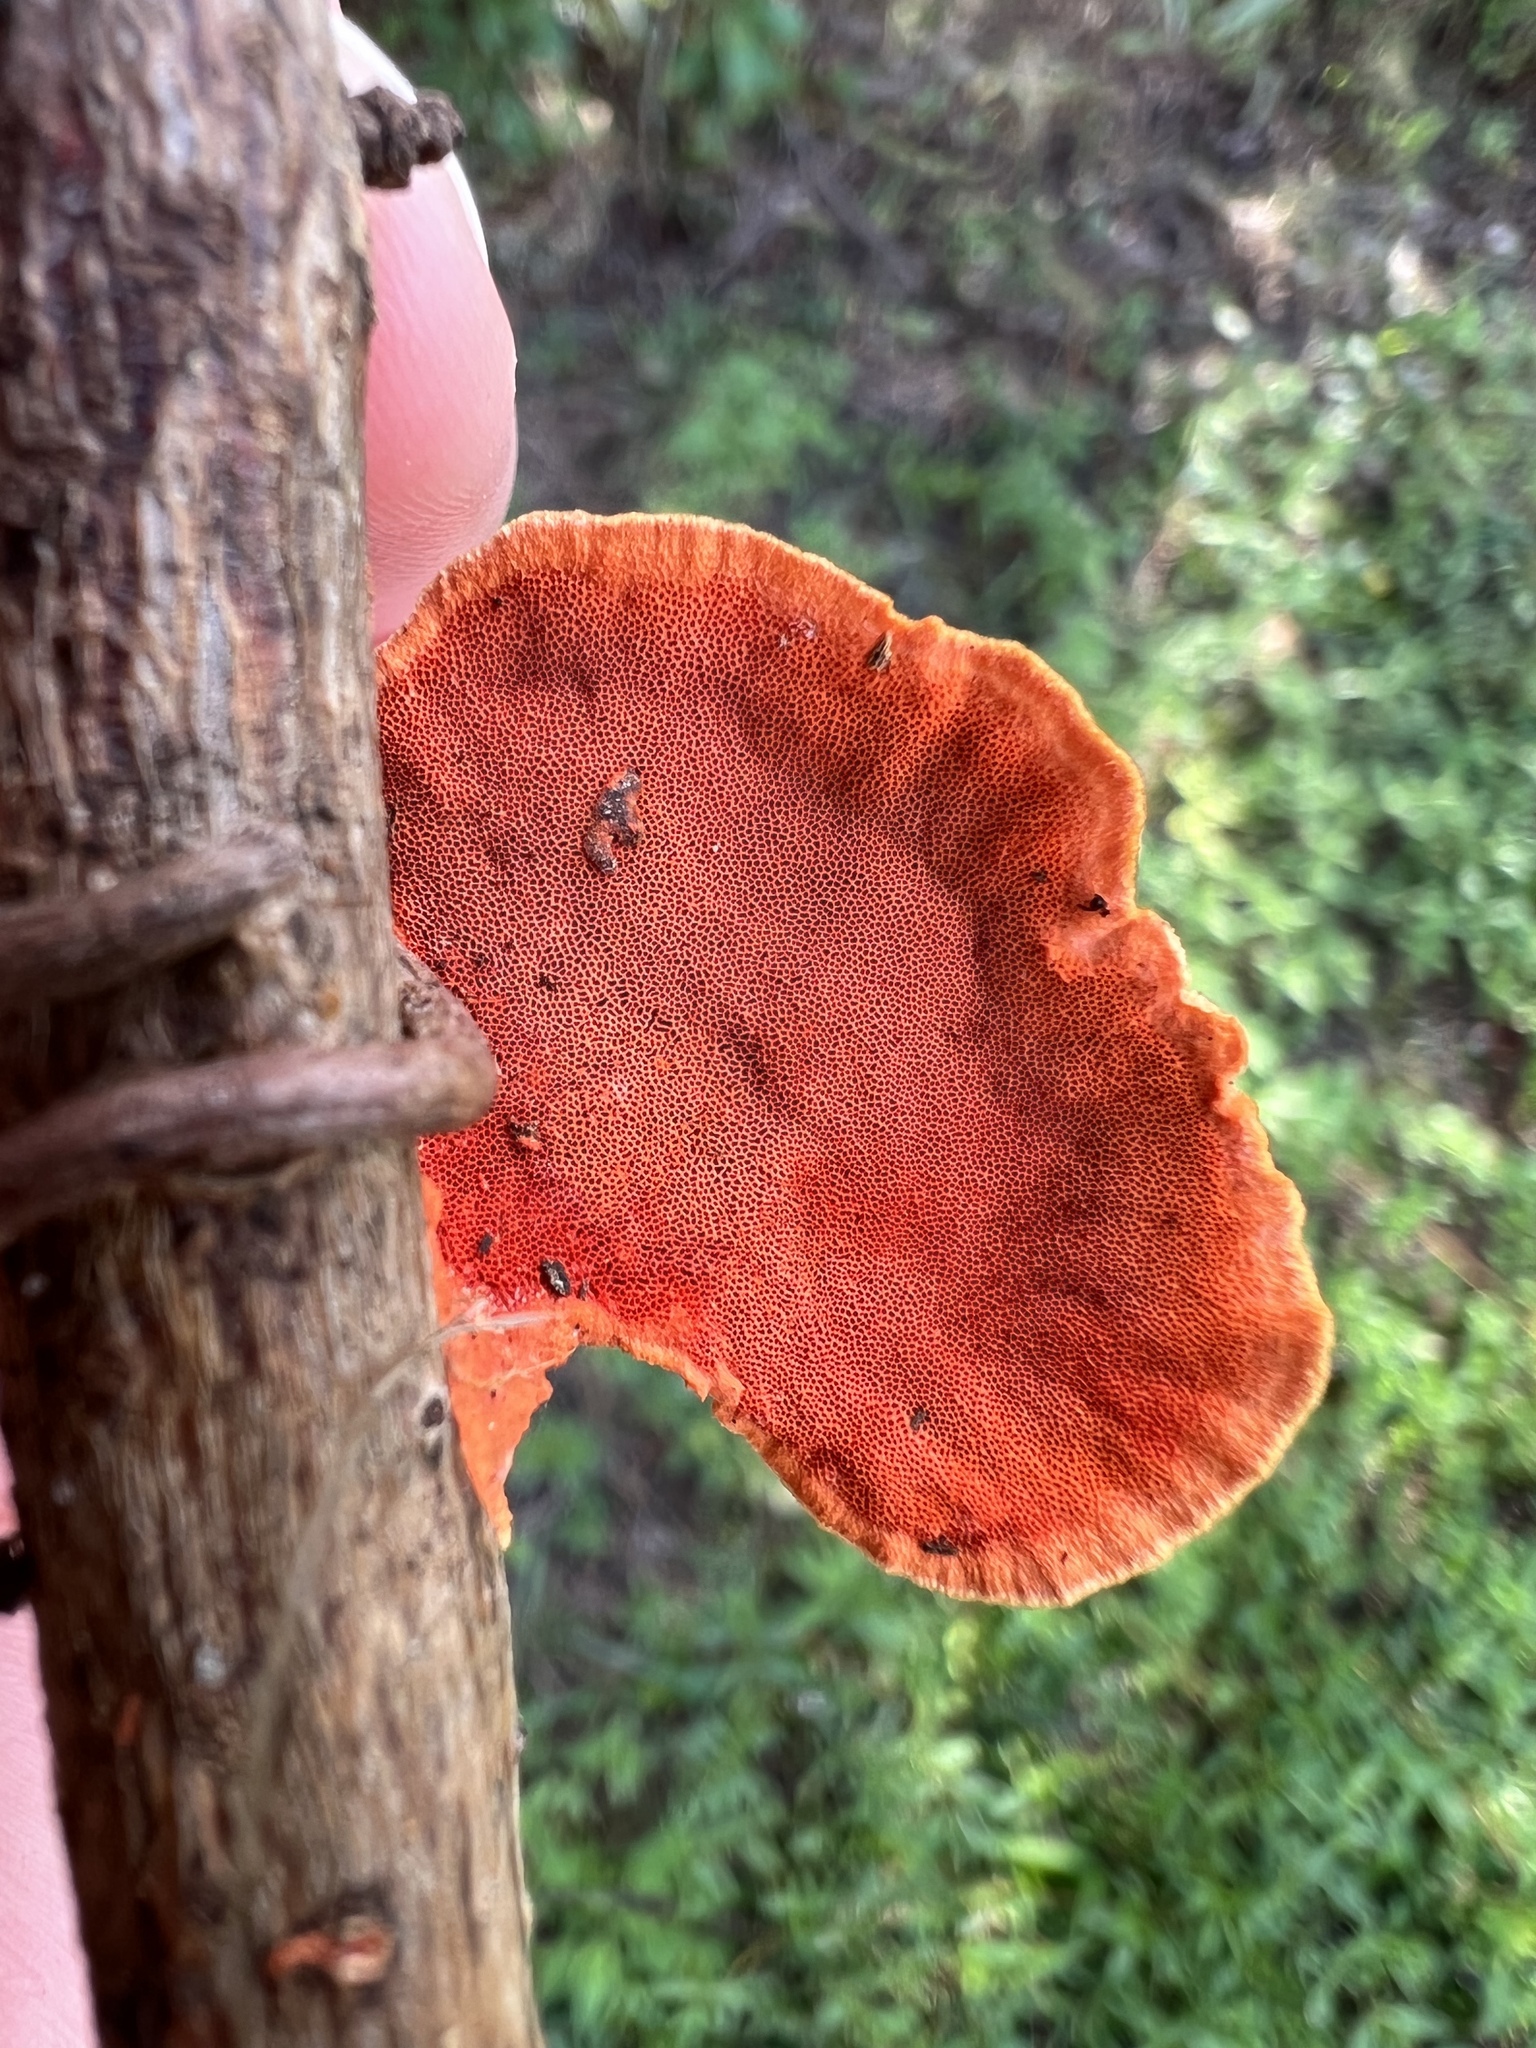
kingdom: Fungi
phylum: Basidiomycota
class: Agaricomycetes
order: Polyporales
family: Polyporaceae
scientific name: Polyporaceae
